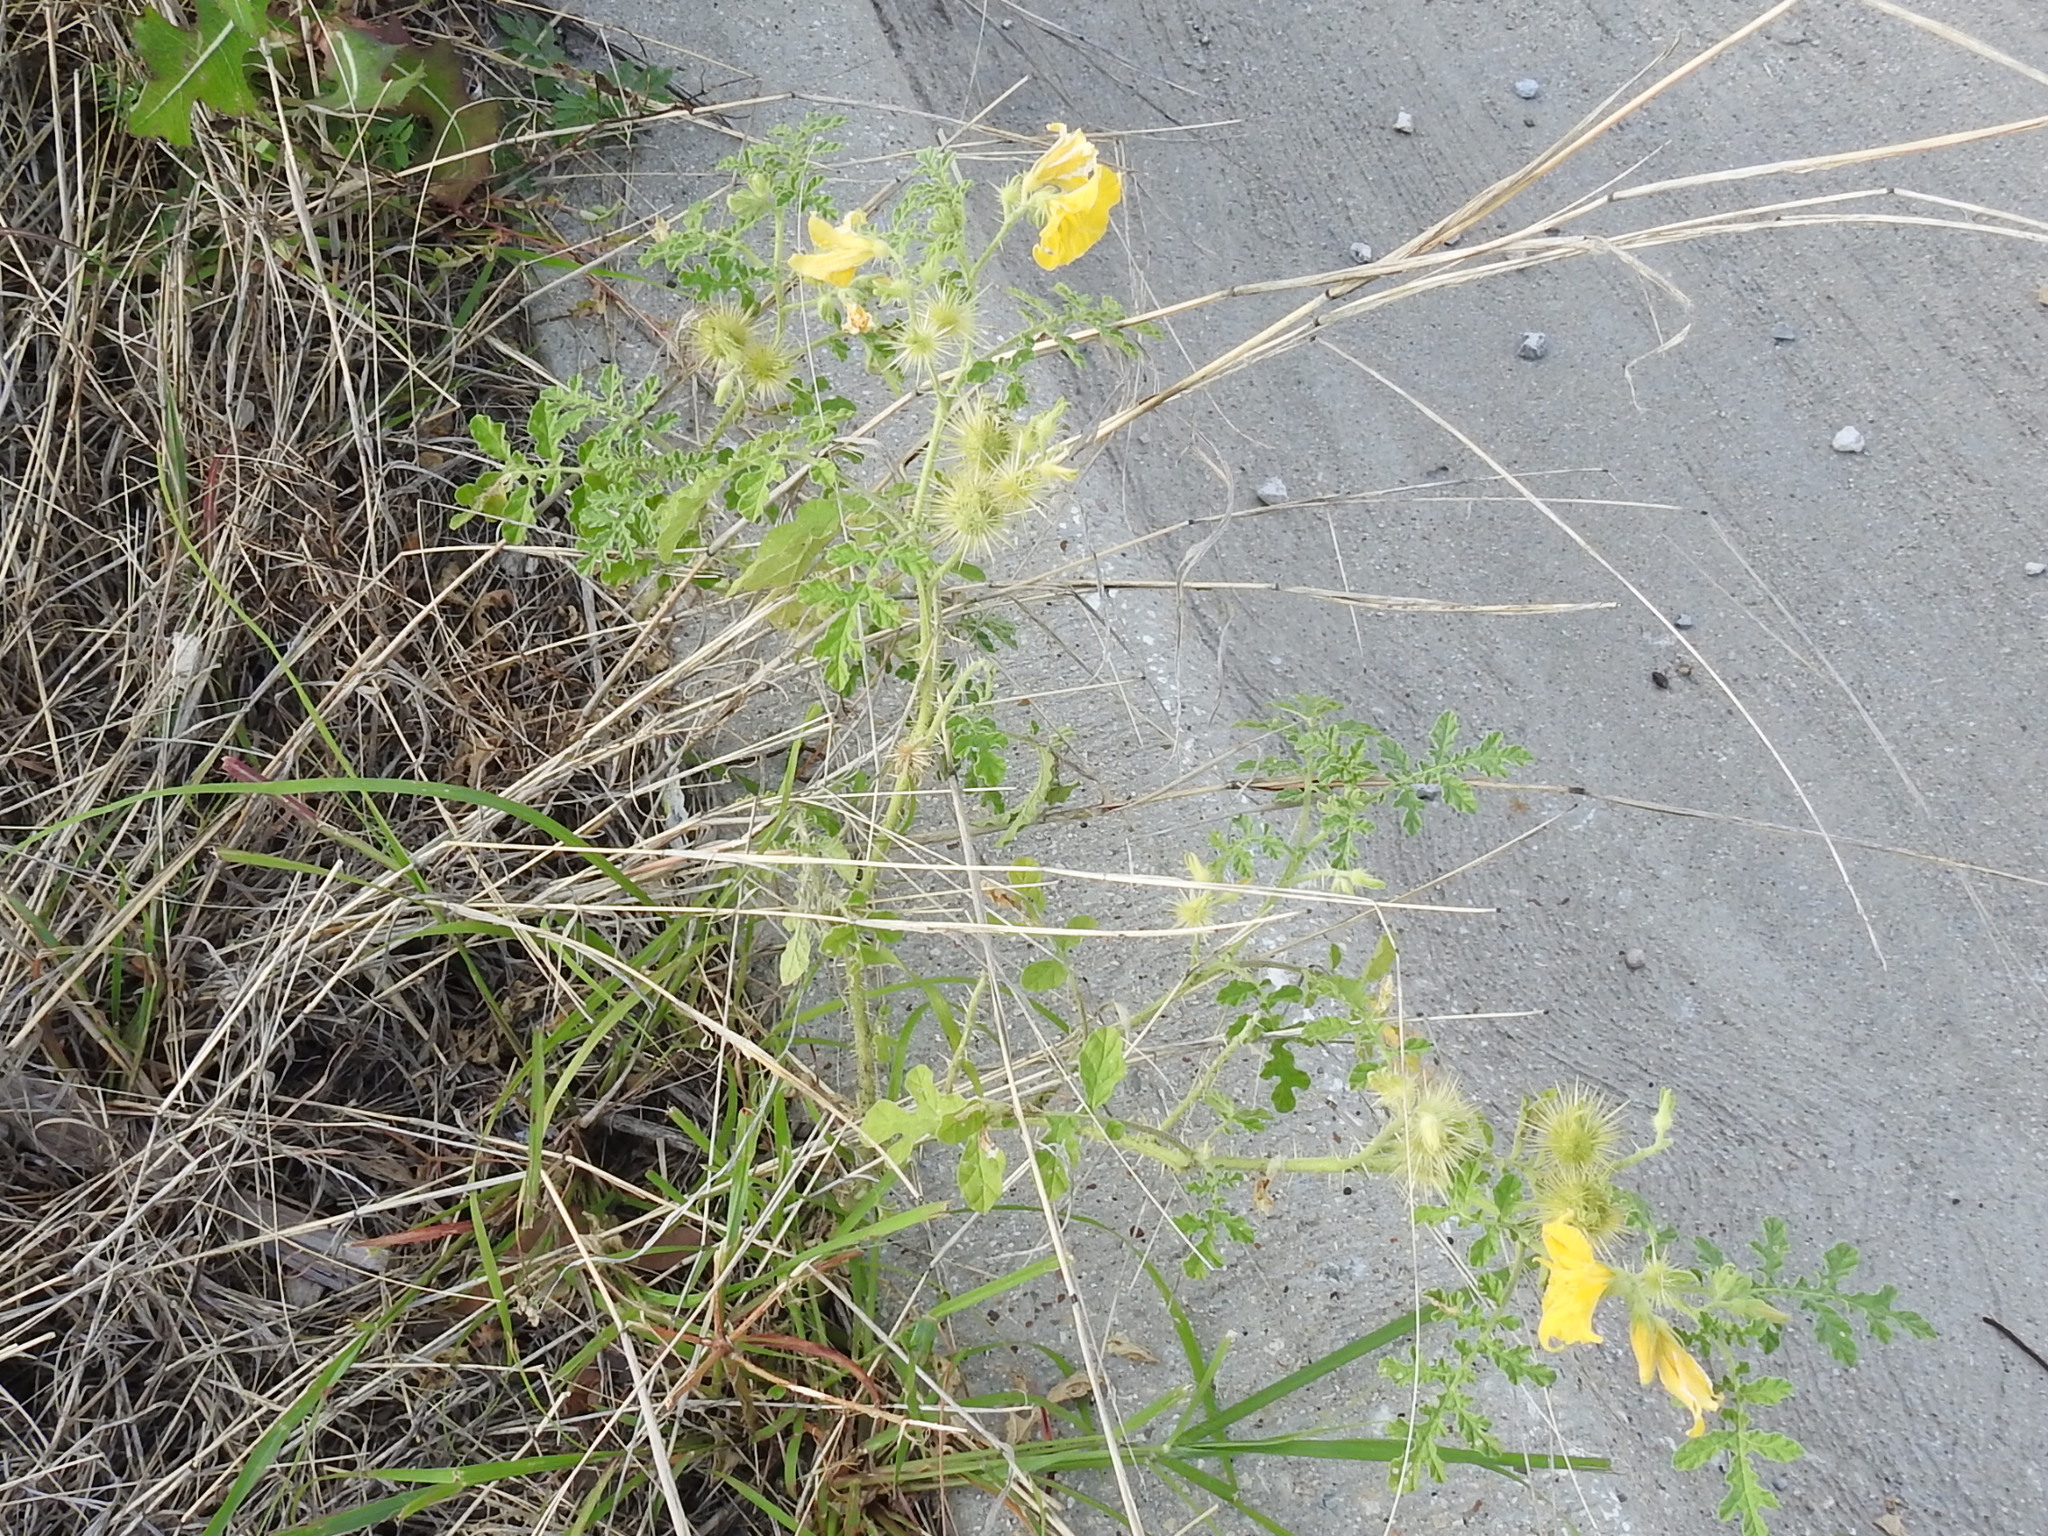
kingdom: Plantae
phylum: Tracheophyta
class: Magnoliopsida
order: Solanales
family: Solanaceae
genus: Solanum
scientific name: Solanum angustifolium
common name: Buffalobur nightshade
